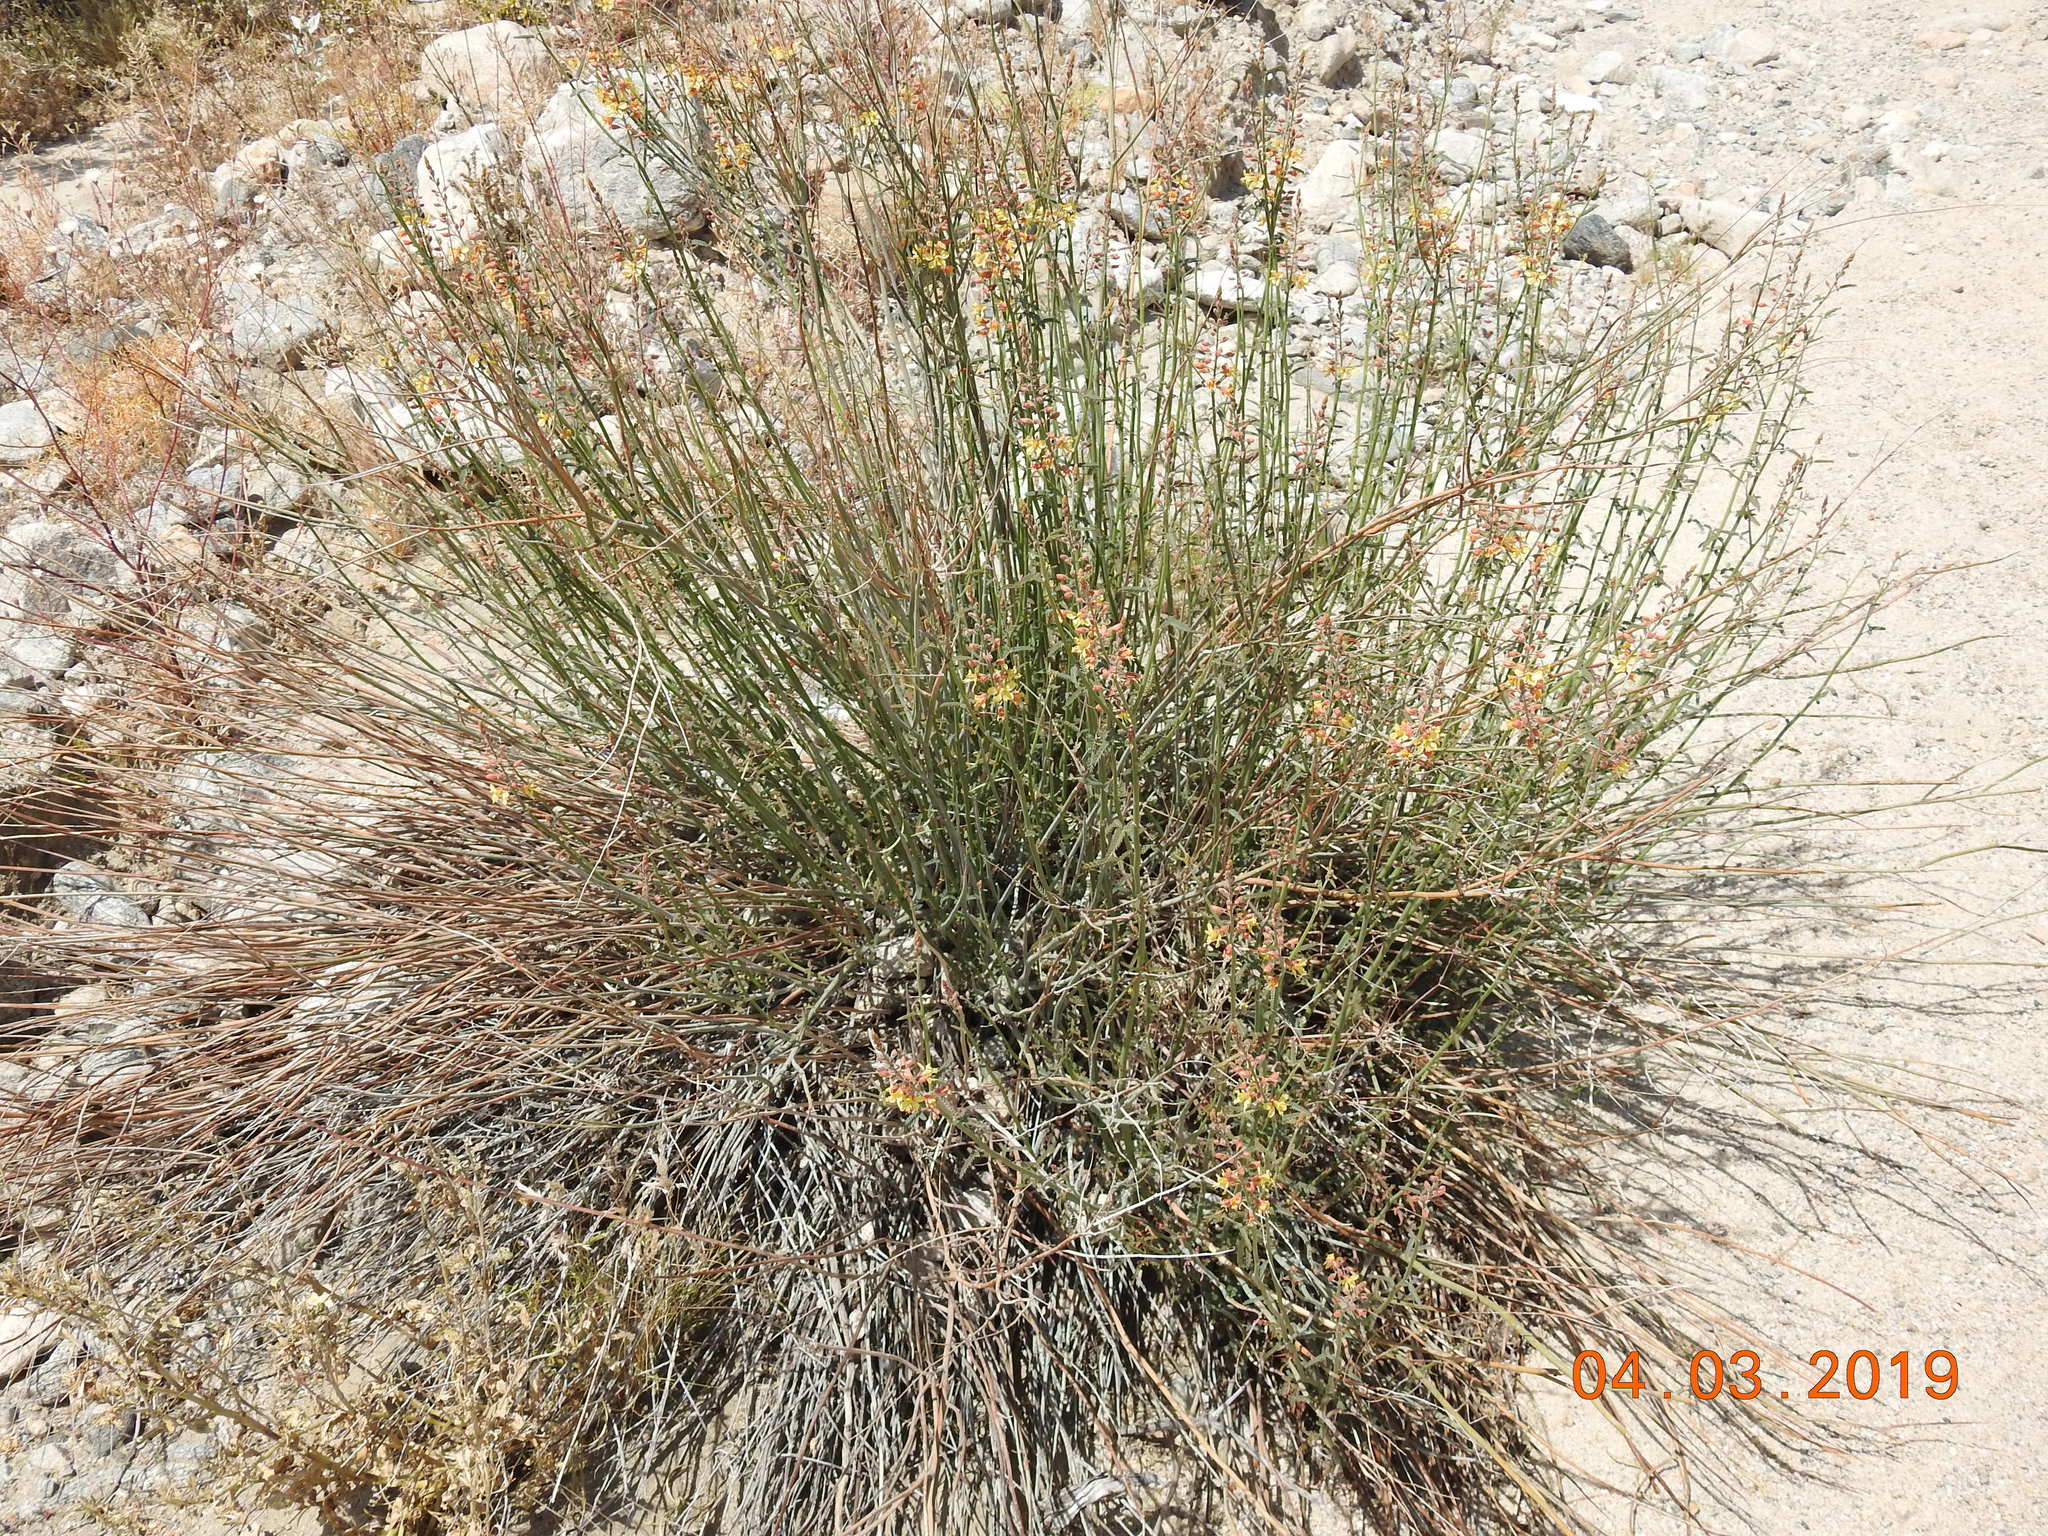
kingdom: Plantae
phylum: Tracheophyta
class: Magnoliopsida
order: Fabales
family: Fabaceae
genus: Hoffmannseggia
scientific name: Hoffmannseggia microphylla
